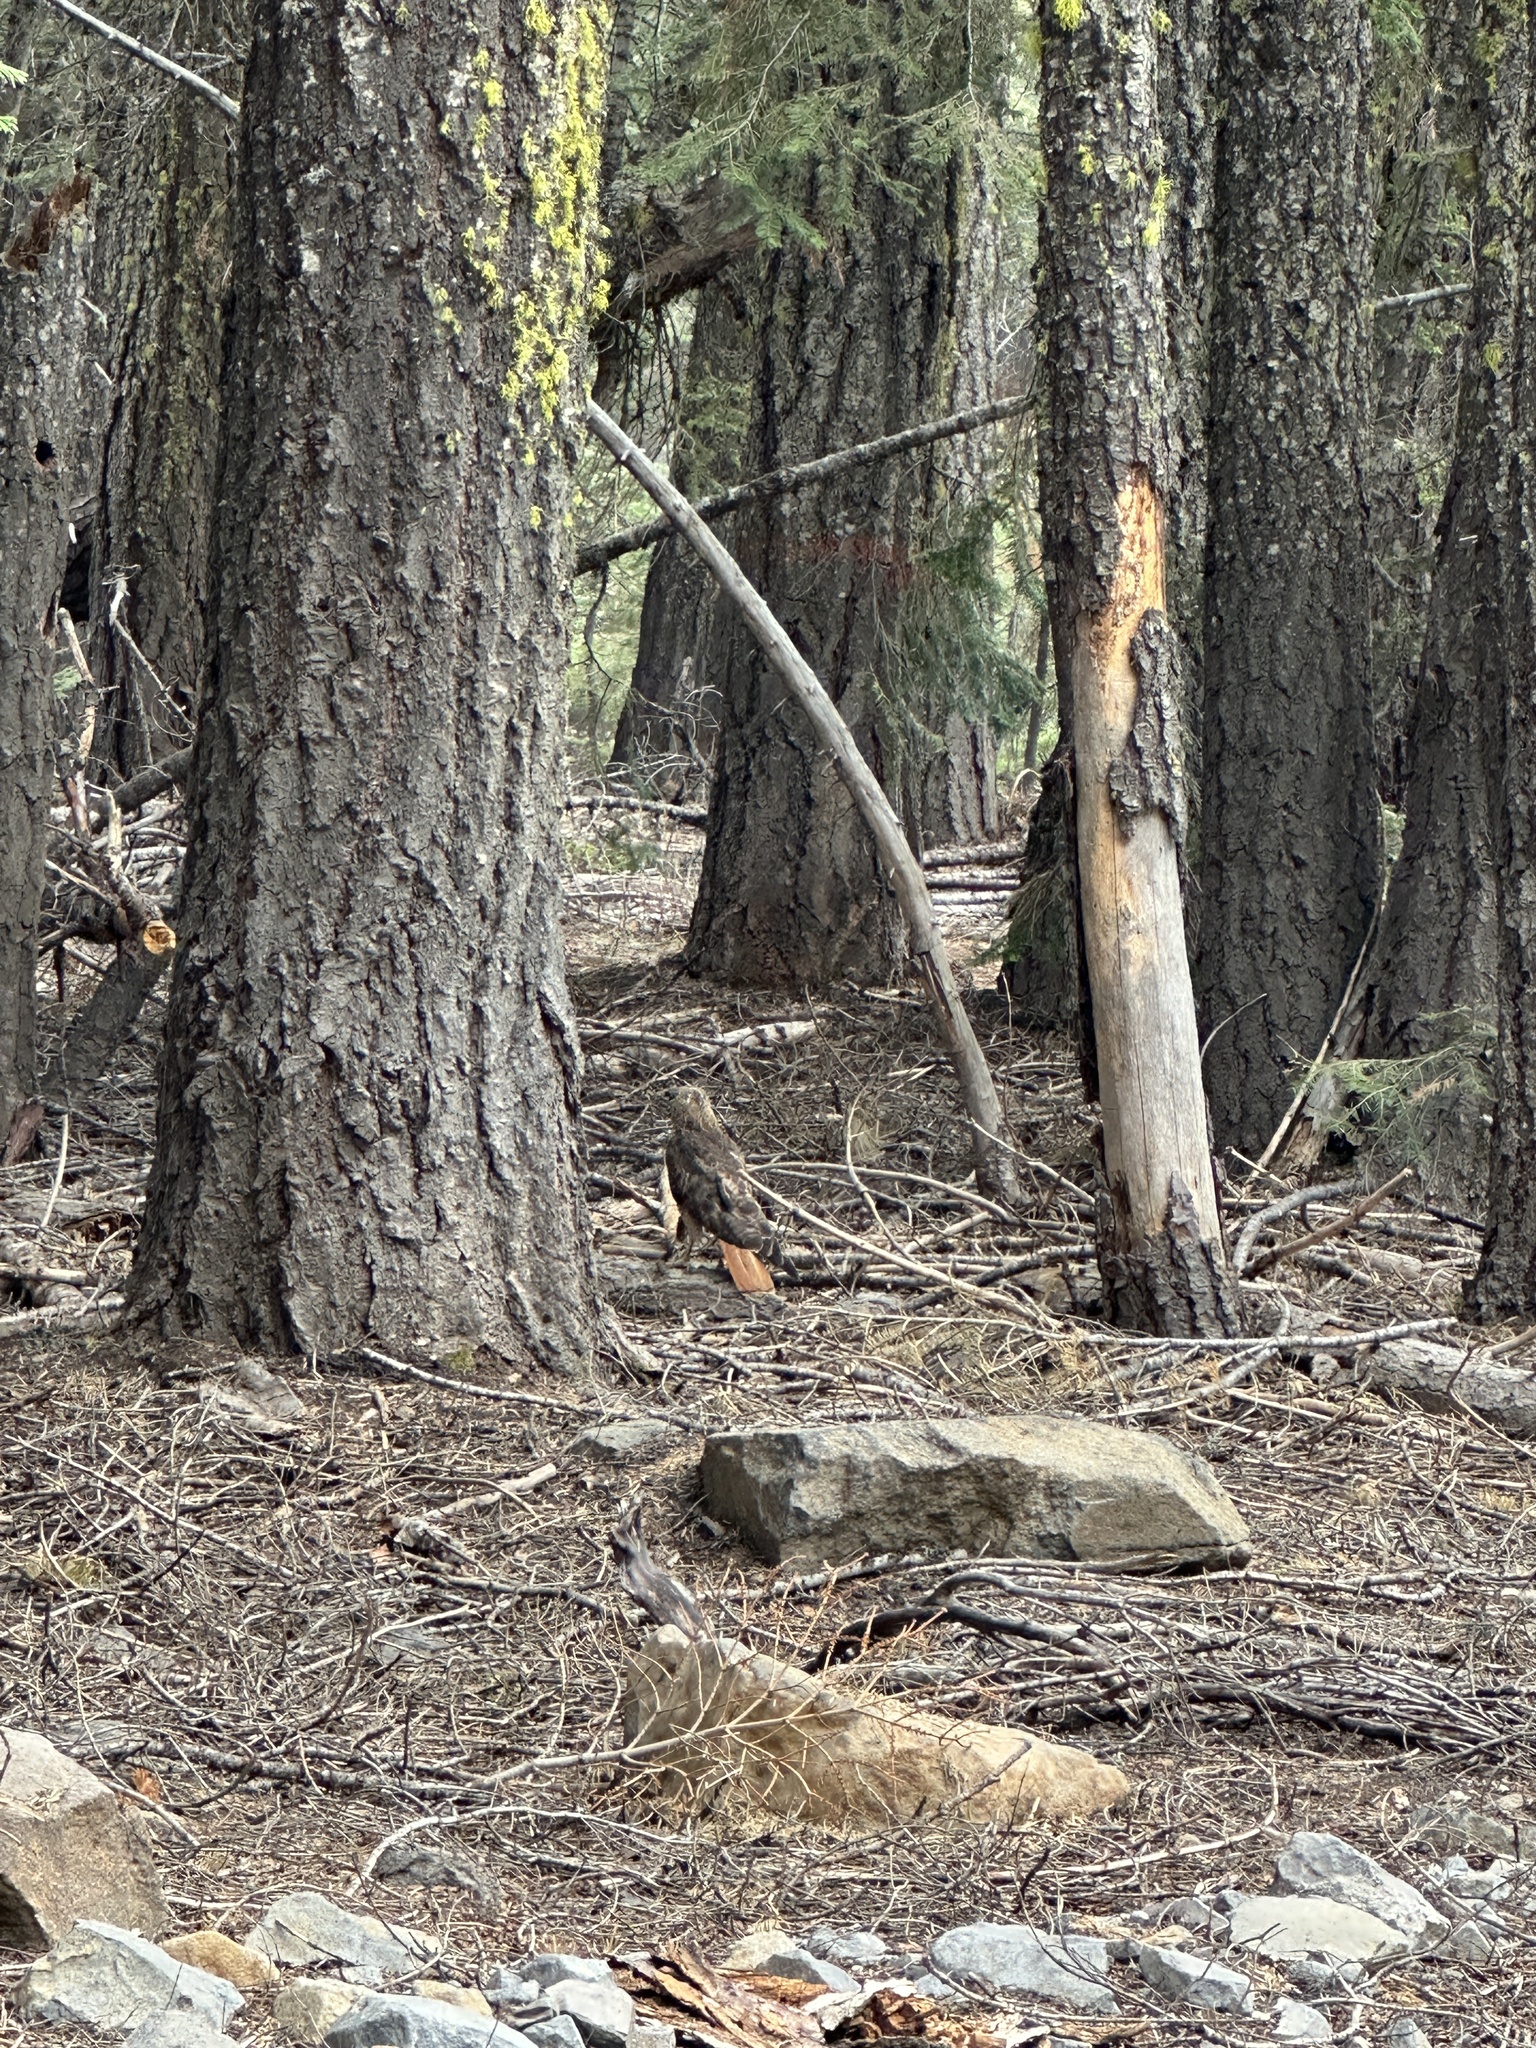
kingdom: Animalia
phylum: Chordata
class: Aves
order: Accipitriformes
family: Accipitridae
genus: Buteo
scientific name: Buteo jamaicensis
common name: Red-tailed hawk
